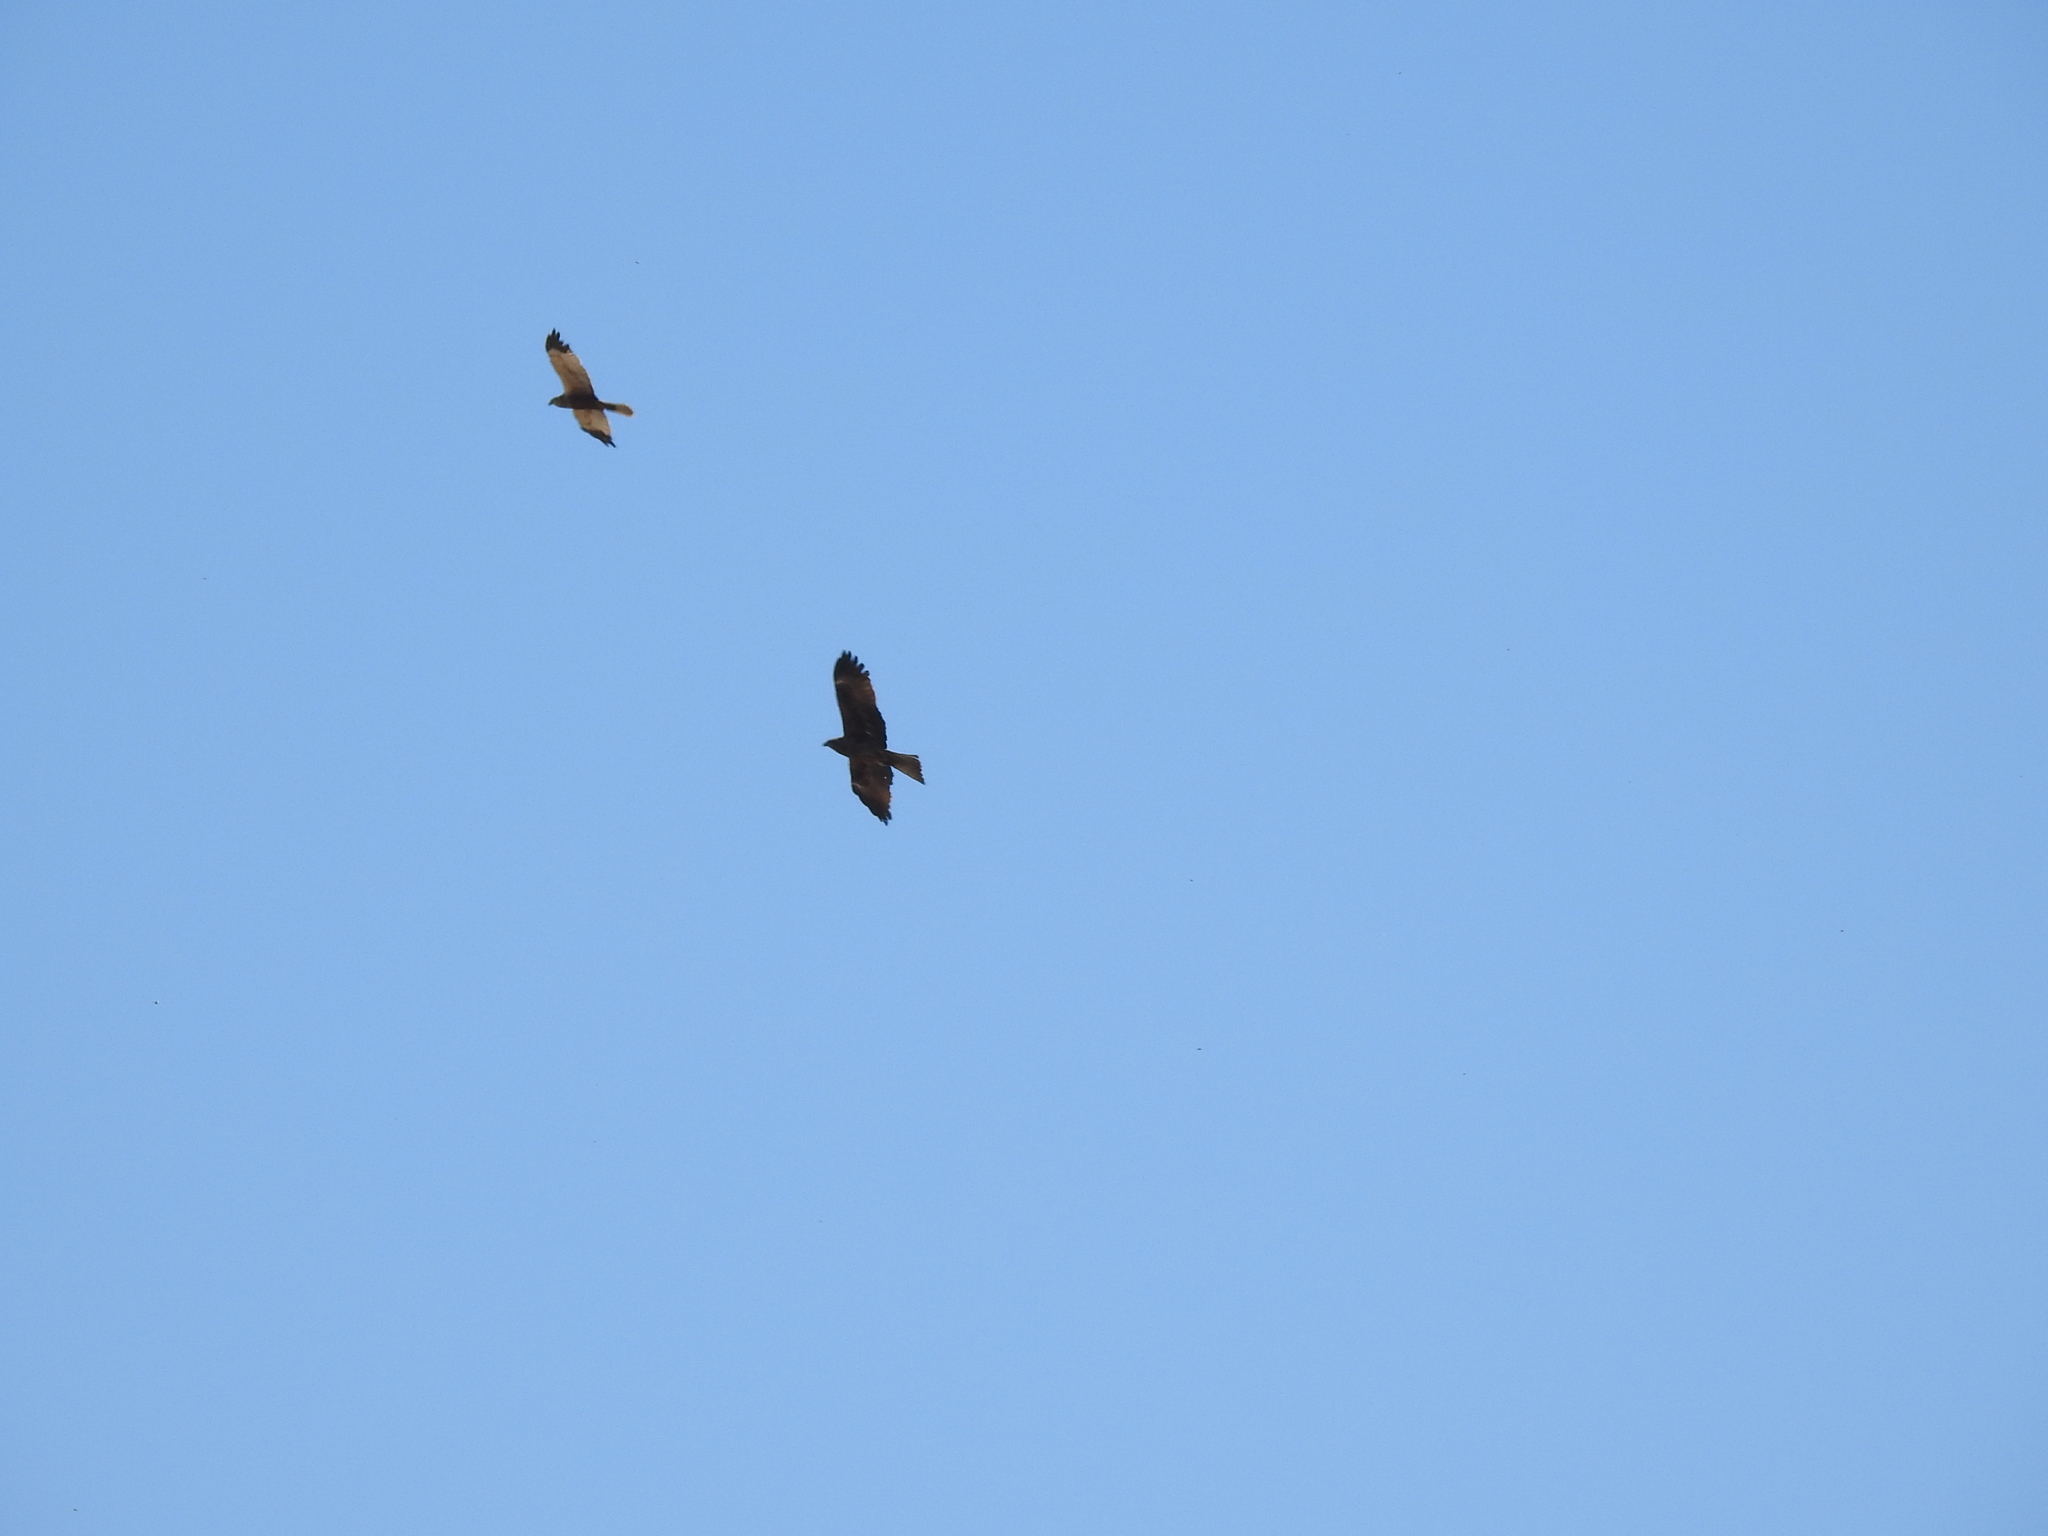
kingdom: Animalia
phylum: Chordata
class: Aves
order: Accipitriformes
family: Accipitridae
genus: Circus
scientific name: Circus aeruginosus
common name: Western marsh harrier
